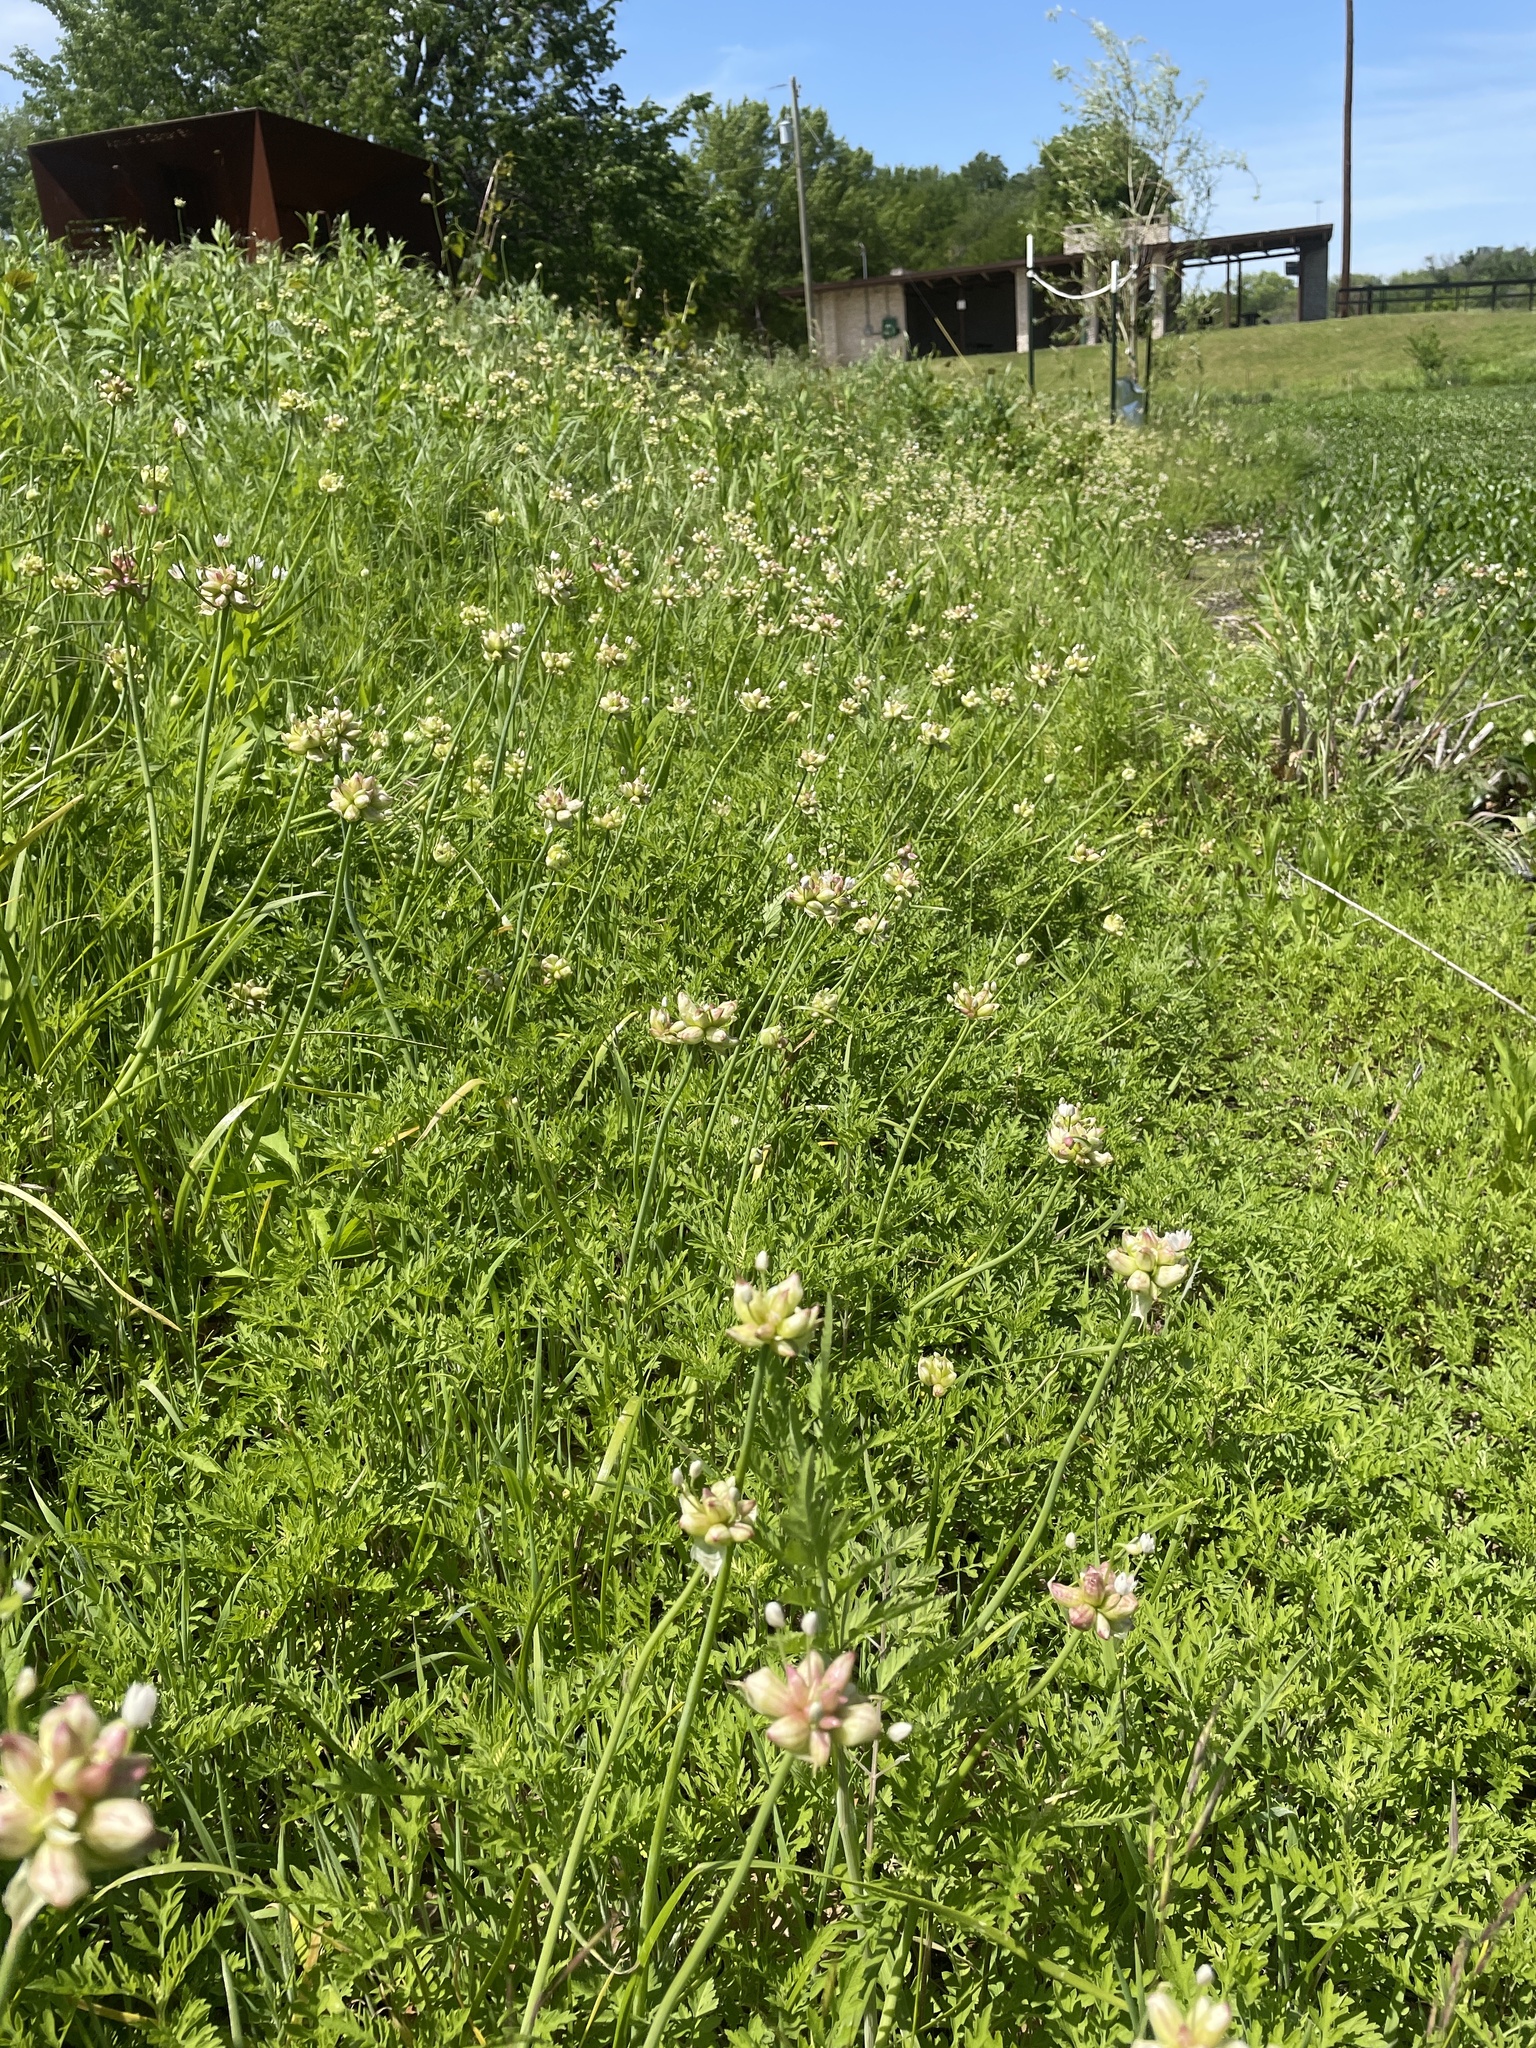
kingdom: Plantae
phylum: Tracheophyta
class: Liliopsida
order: Asparagales
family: Amaryllidaceae
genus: Allium
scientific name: Allium canadense
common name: Meadow garlic
